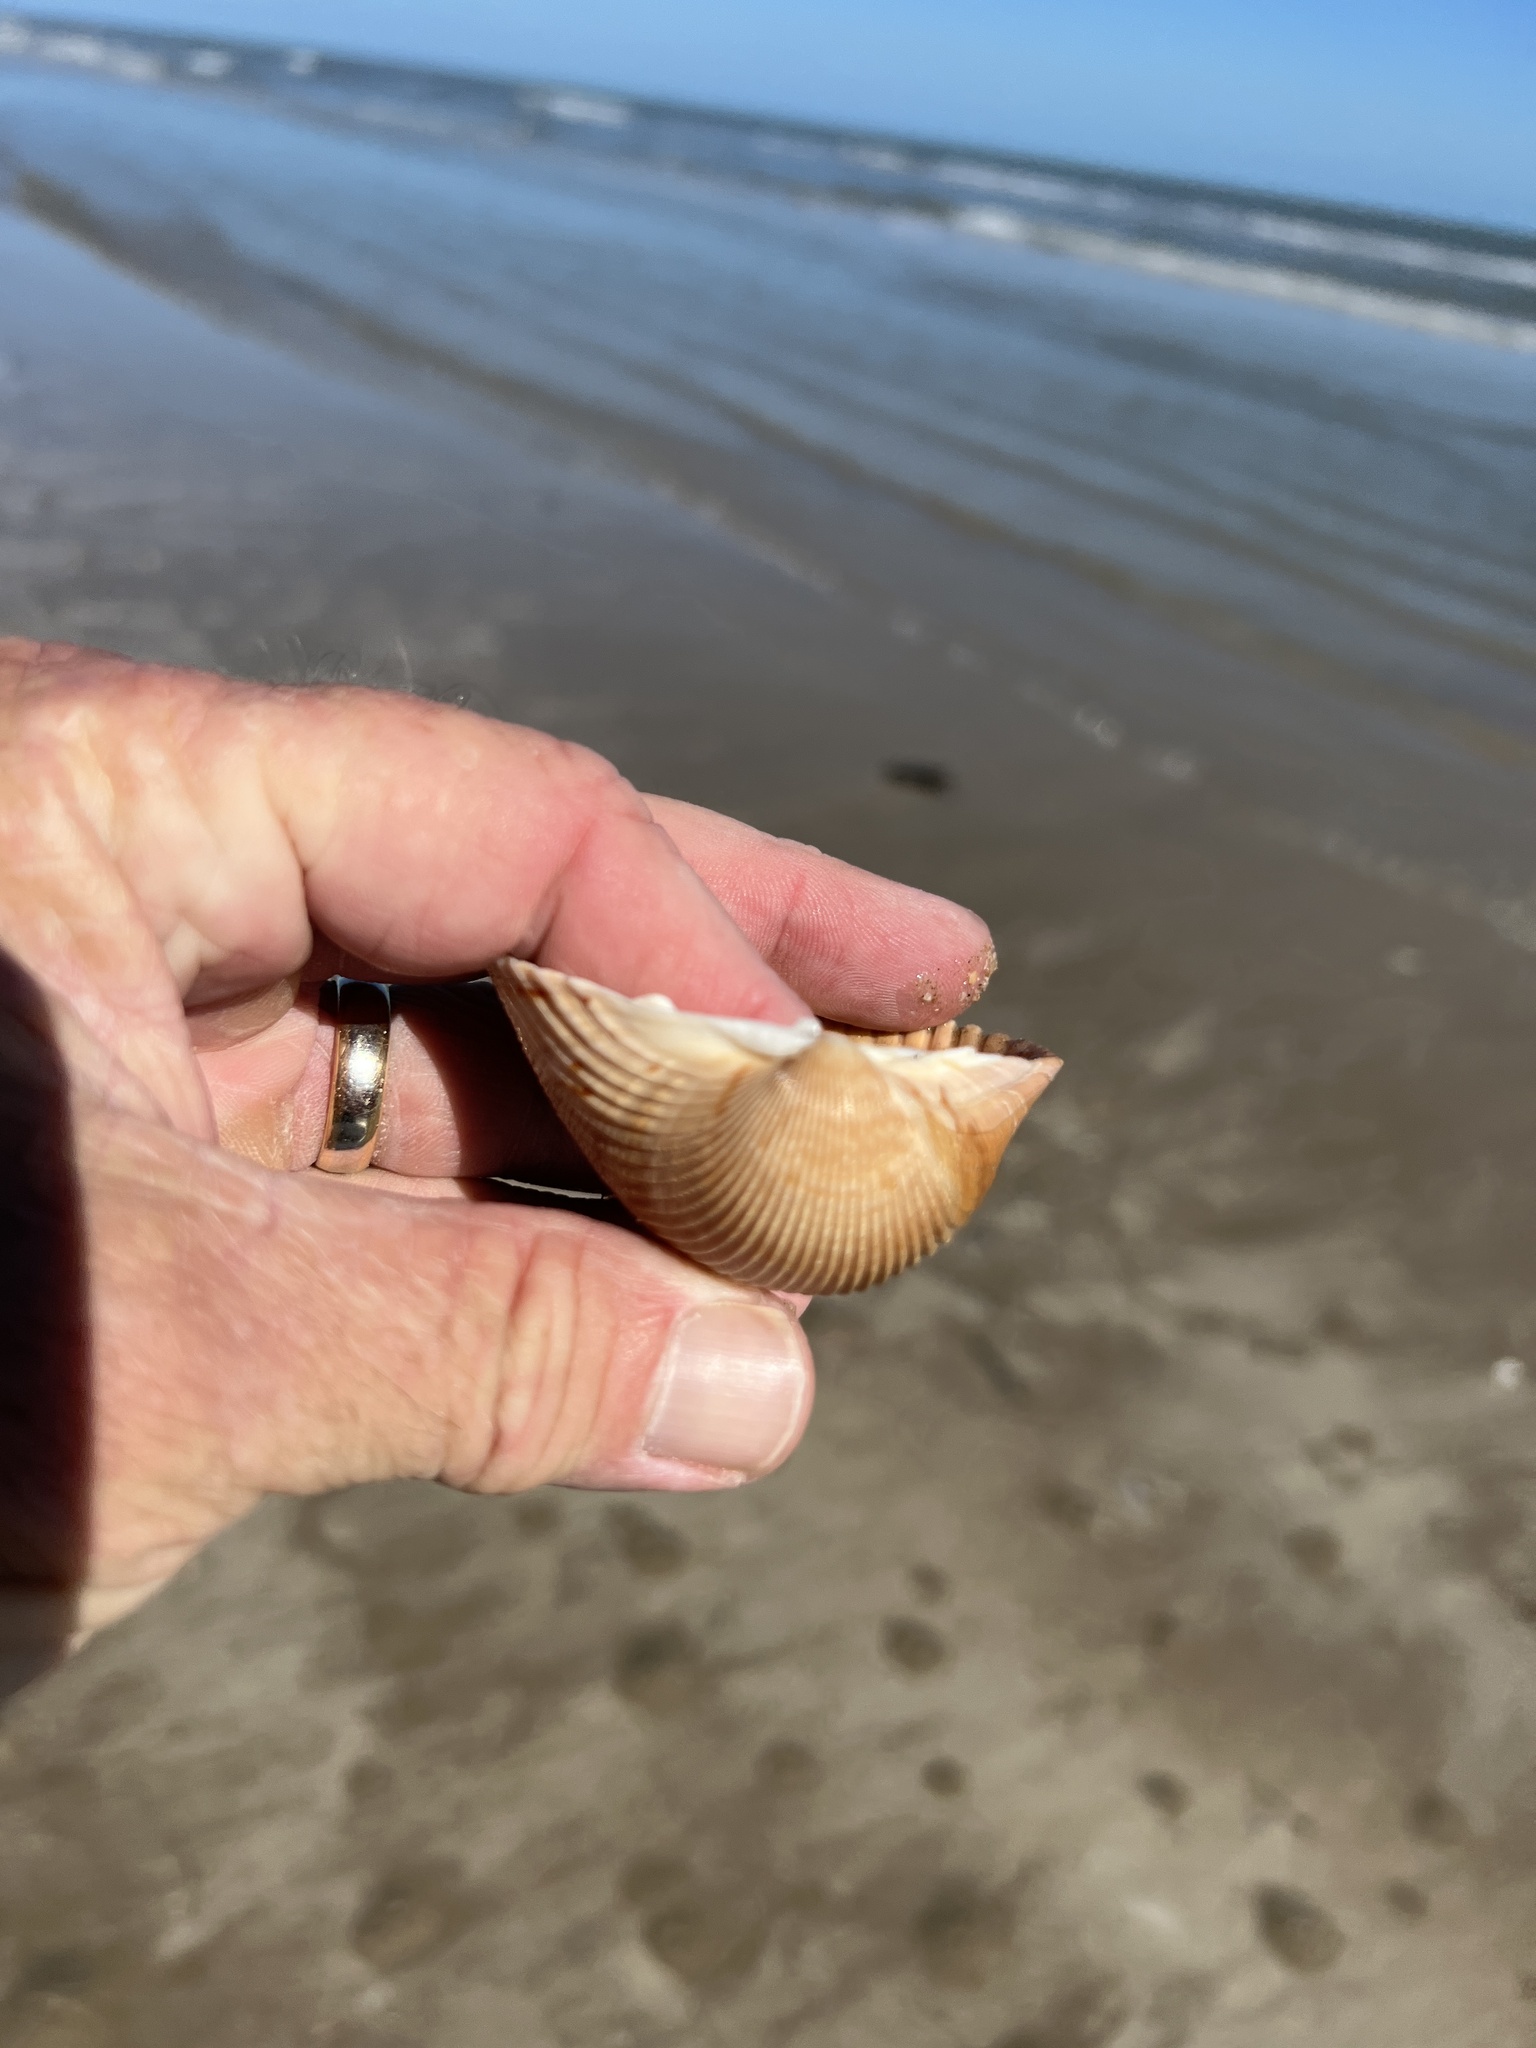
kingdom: Animalia
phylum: Mollusca
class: Bivalvia
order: Cardiida
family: Cardiidae
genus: Dinocardium
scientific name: Dinocardium robustum
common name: Atlantic giant cockle
